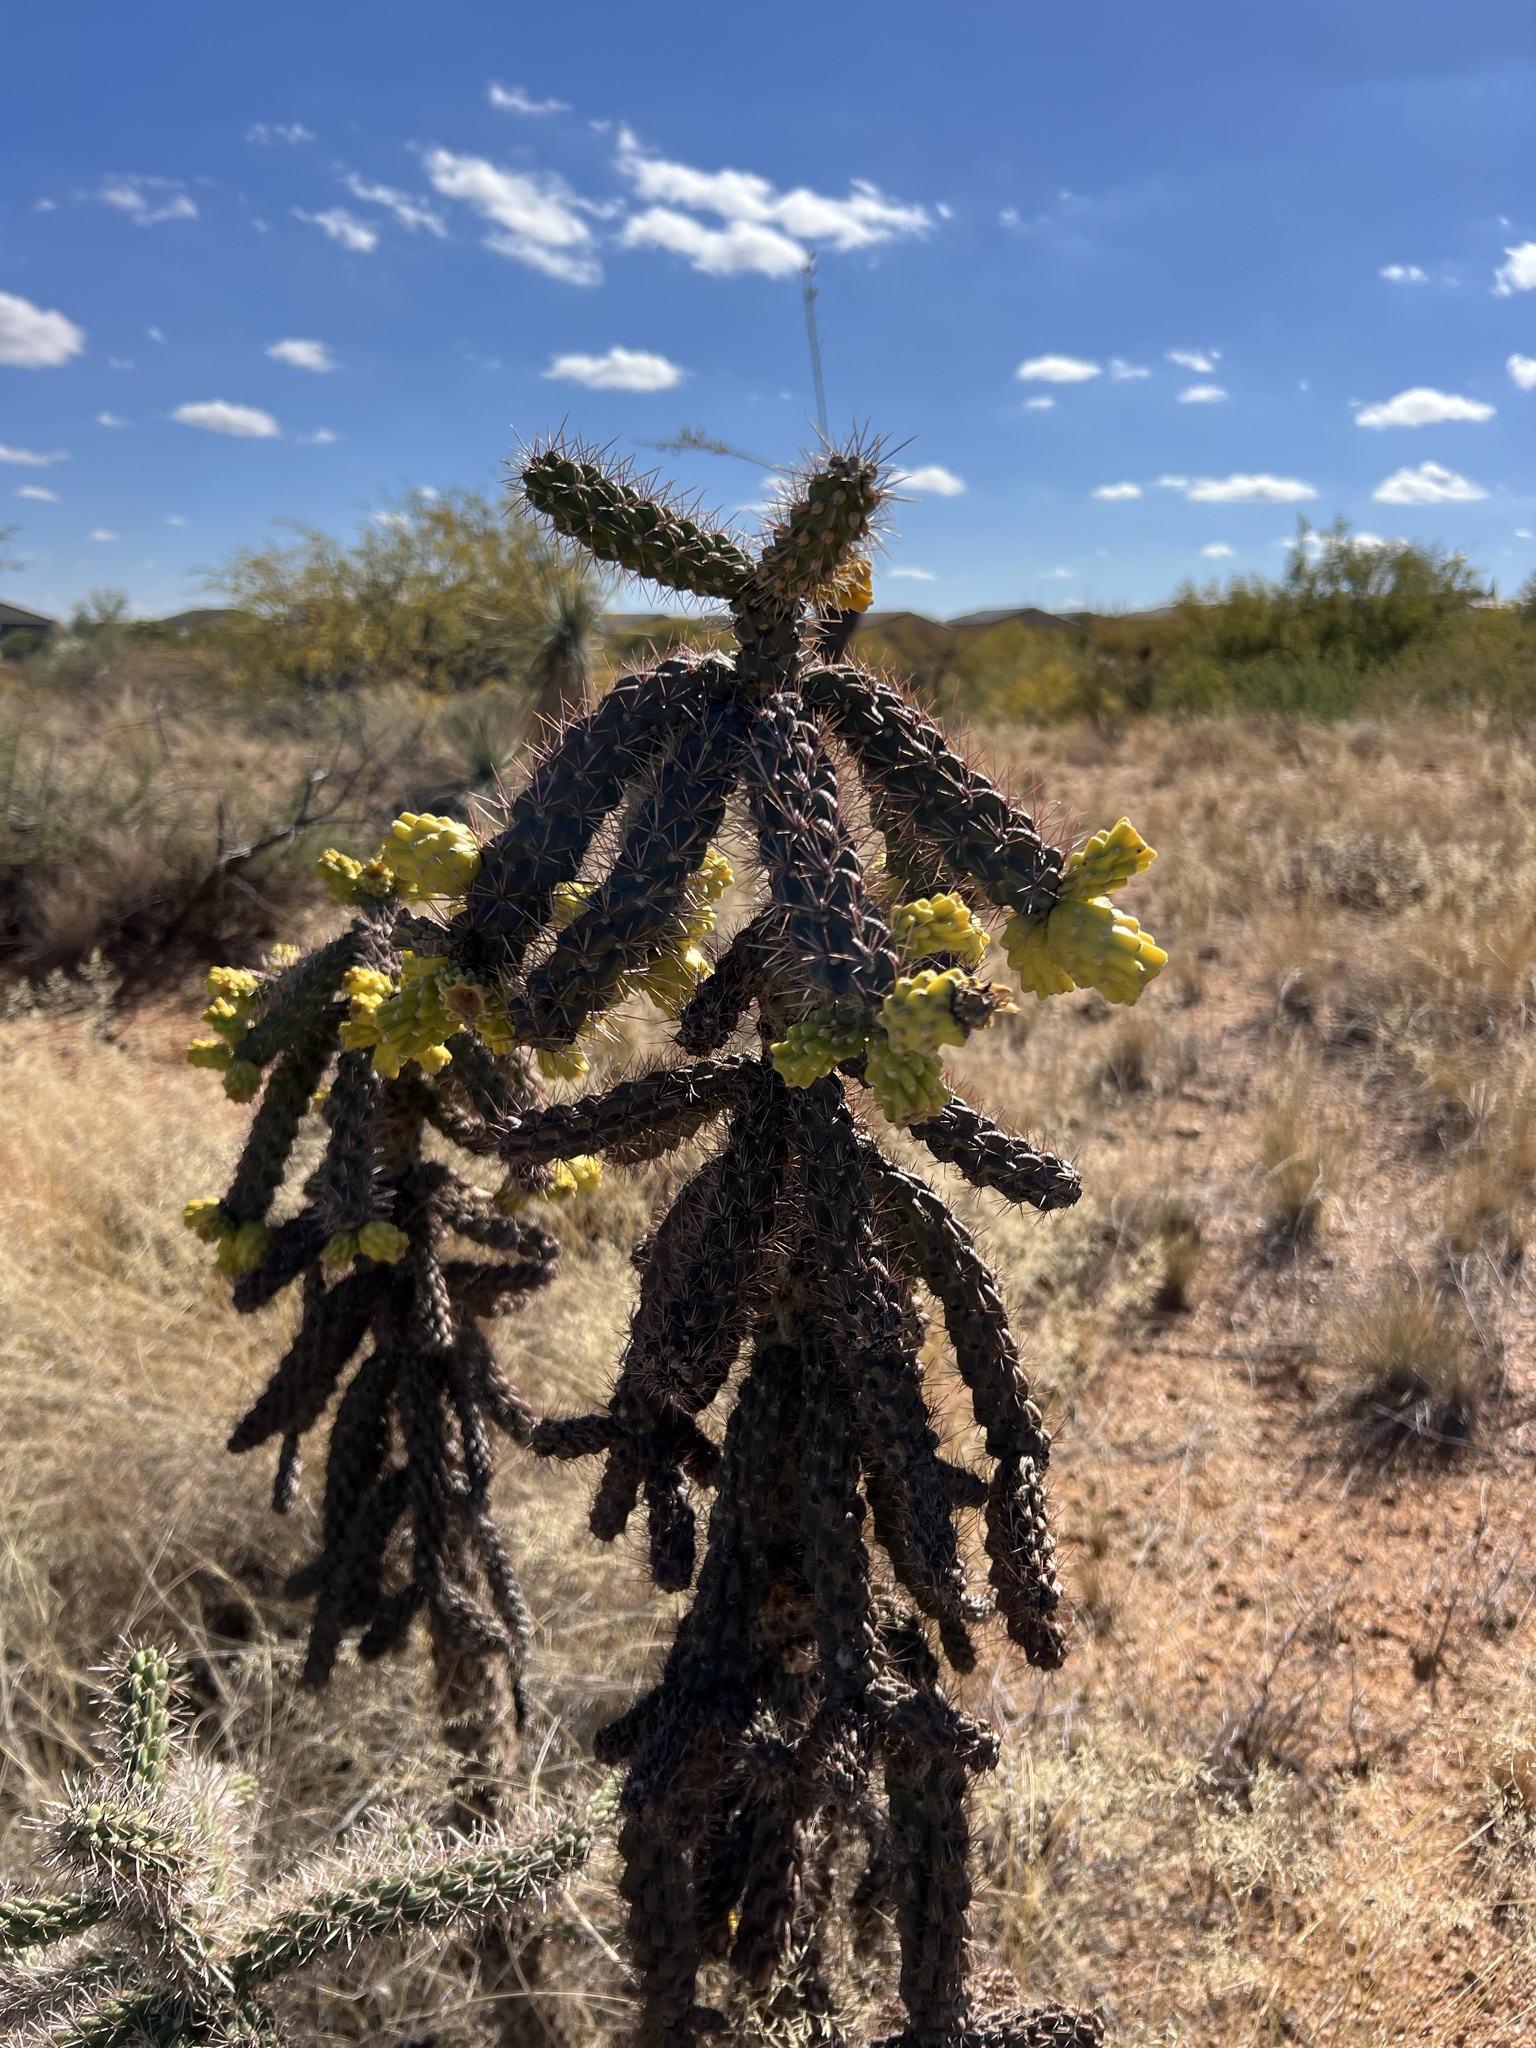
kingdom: Plantae
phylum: Tracheophyta
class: Magnoliopsida
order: Caryophyllales
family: Cactaceae
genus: Cylindropuntia
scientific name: Cylindropuntia imbricata
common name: Candelabrum cactus
